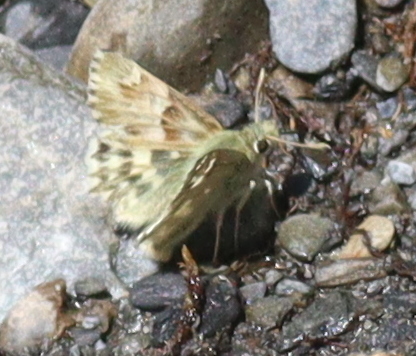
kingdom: Animalia
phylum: Arthropoda
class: Insecta
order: Lepidoptera
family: Hesperiidae
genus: Carcharodus
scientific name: Carcharodus lavatherae
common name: Marbled skipper
